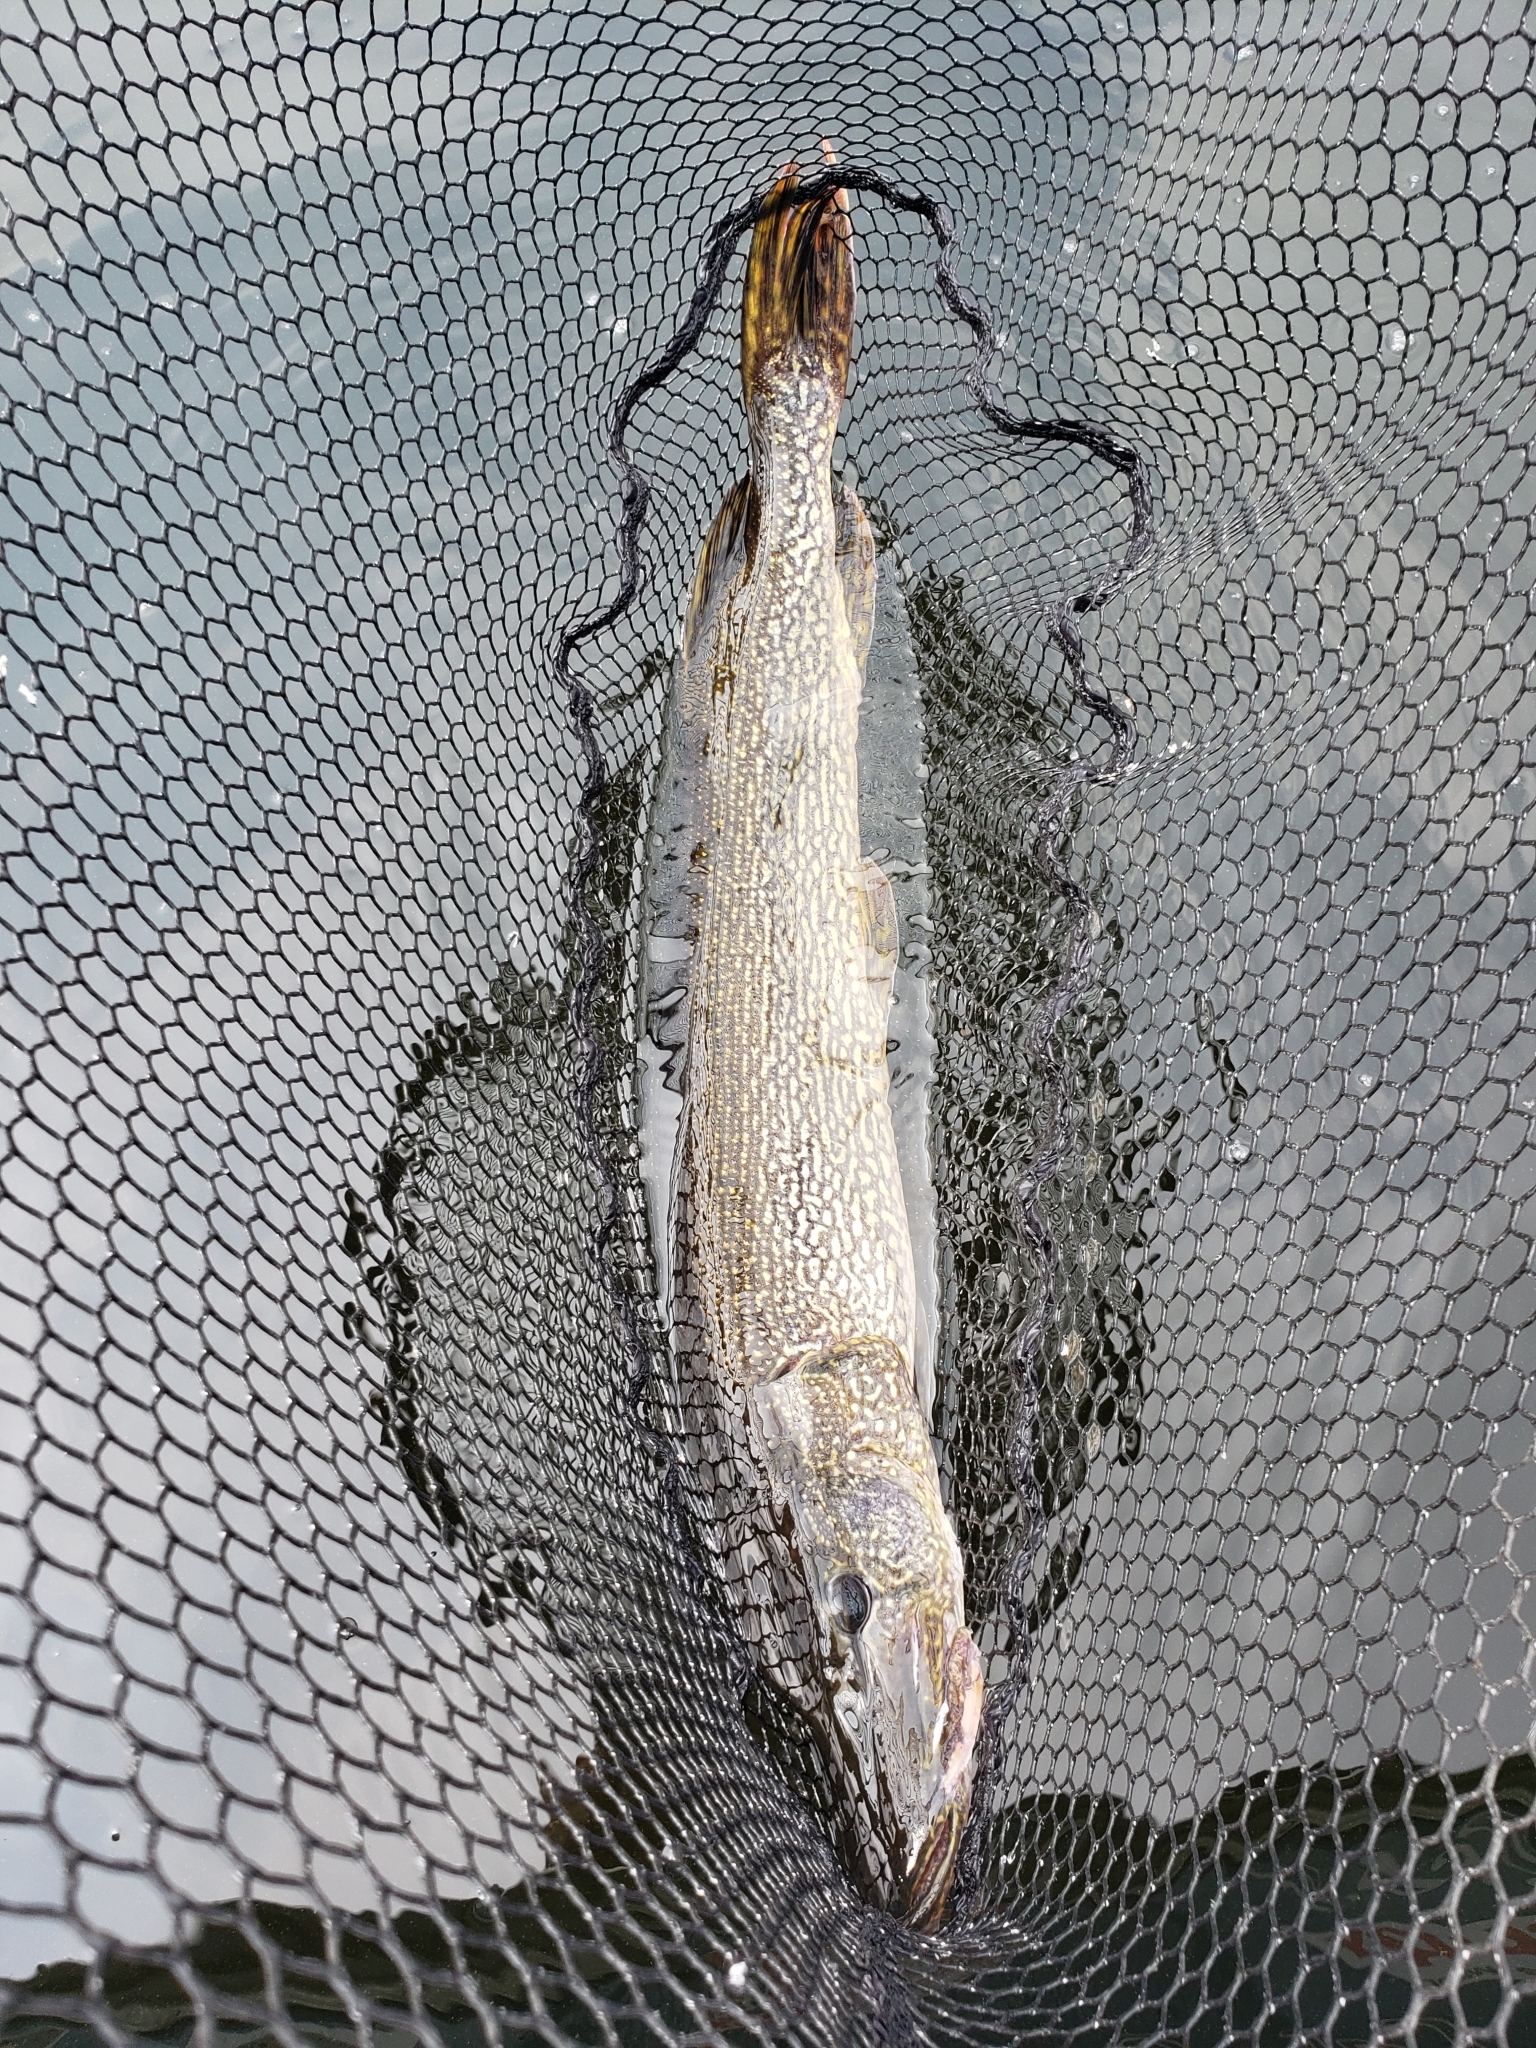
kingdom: Animalia
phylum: Chordata
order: Esociformes
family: Esocidae
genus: Esox
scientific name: Esox lucius
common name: Northern pike
